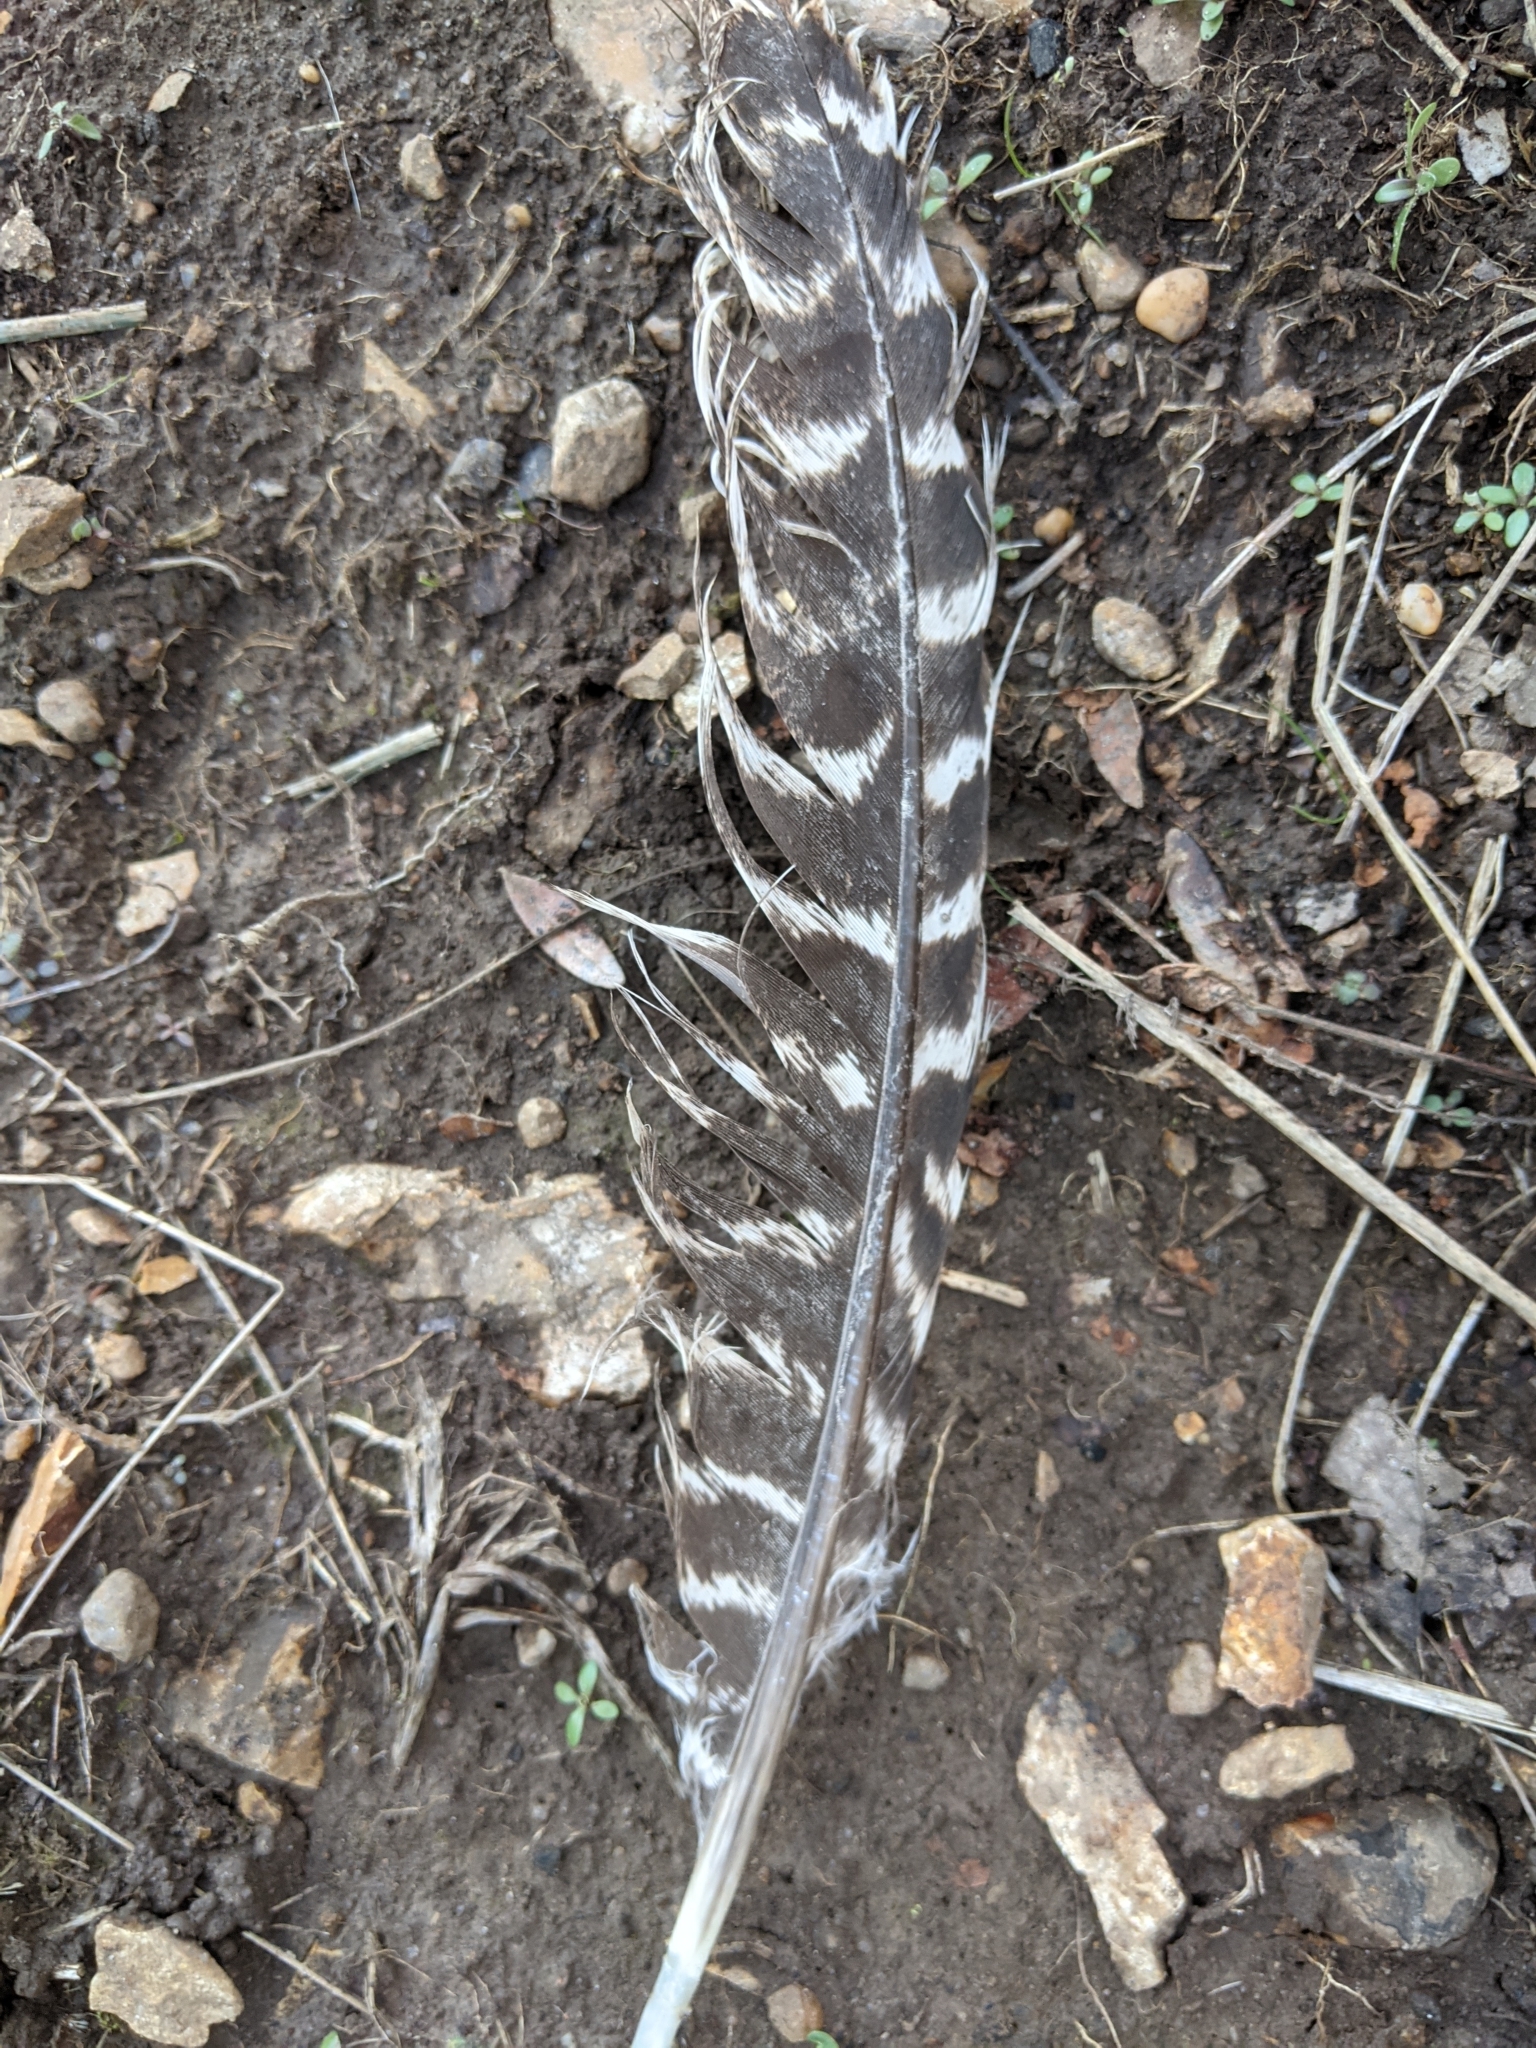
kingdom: Animalia
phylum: Chordata
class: Aves
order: Galliformes
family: Phasianidae
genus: Meleagris
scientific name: Meleagris gallopavo
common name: Wild turkey
